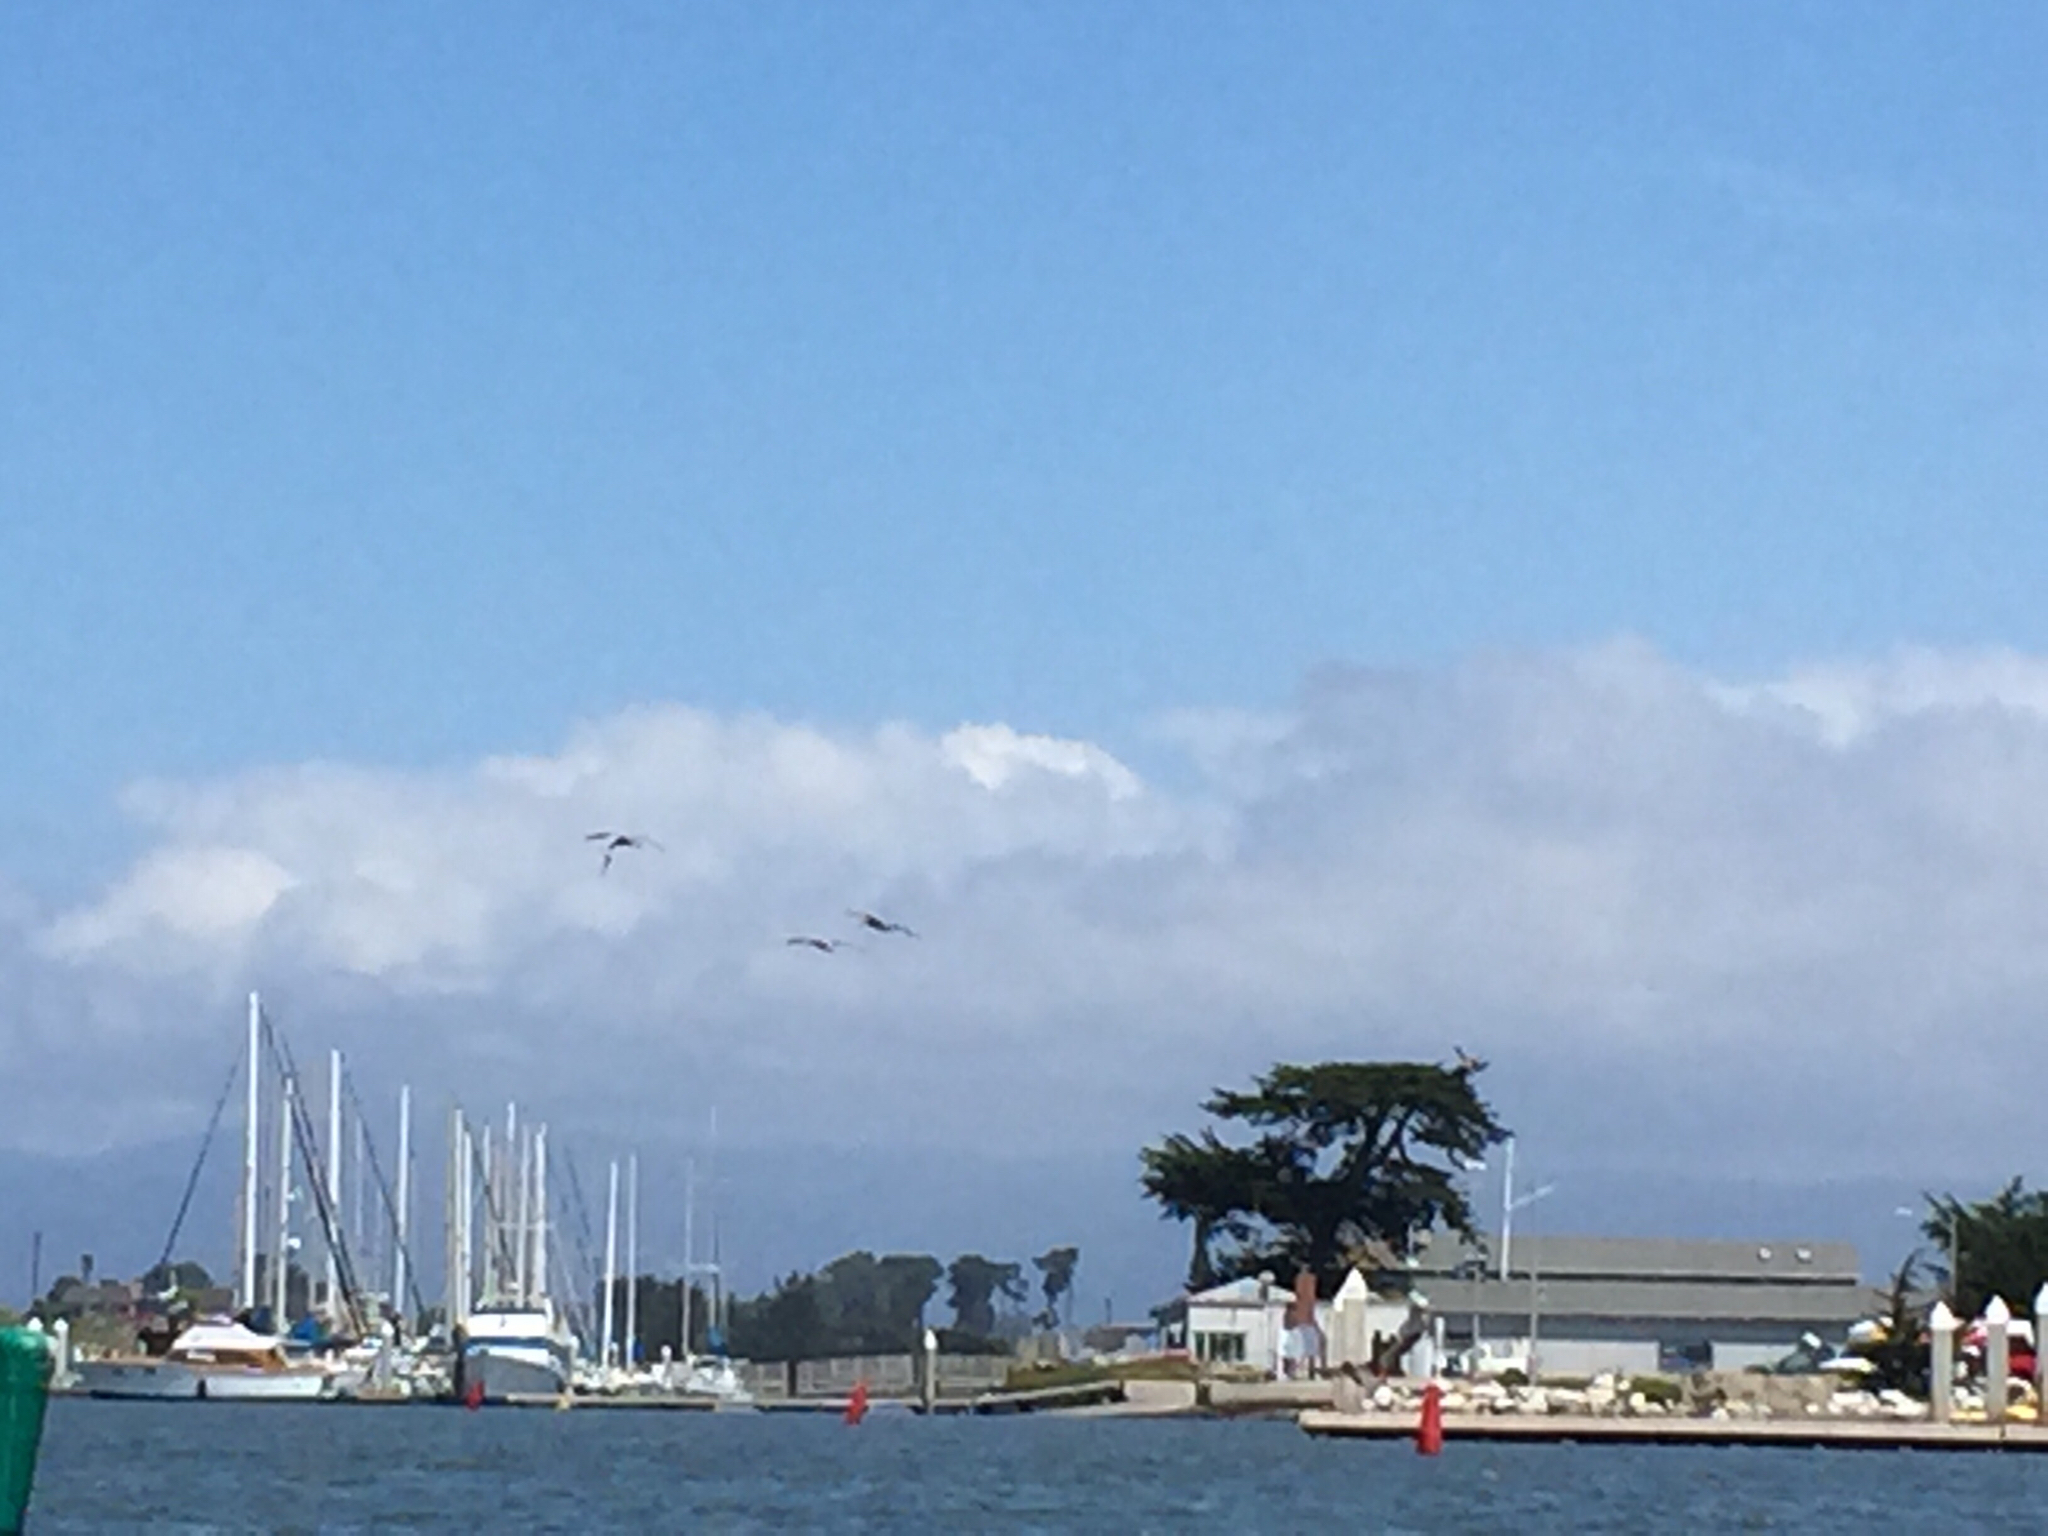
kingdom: Animalia
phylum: Chordata
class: Aves
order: Pelecaniformes
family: Pelecanidae
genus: Pelecanus
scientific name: Pelecanus occidentalis
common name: Brown pelican
